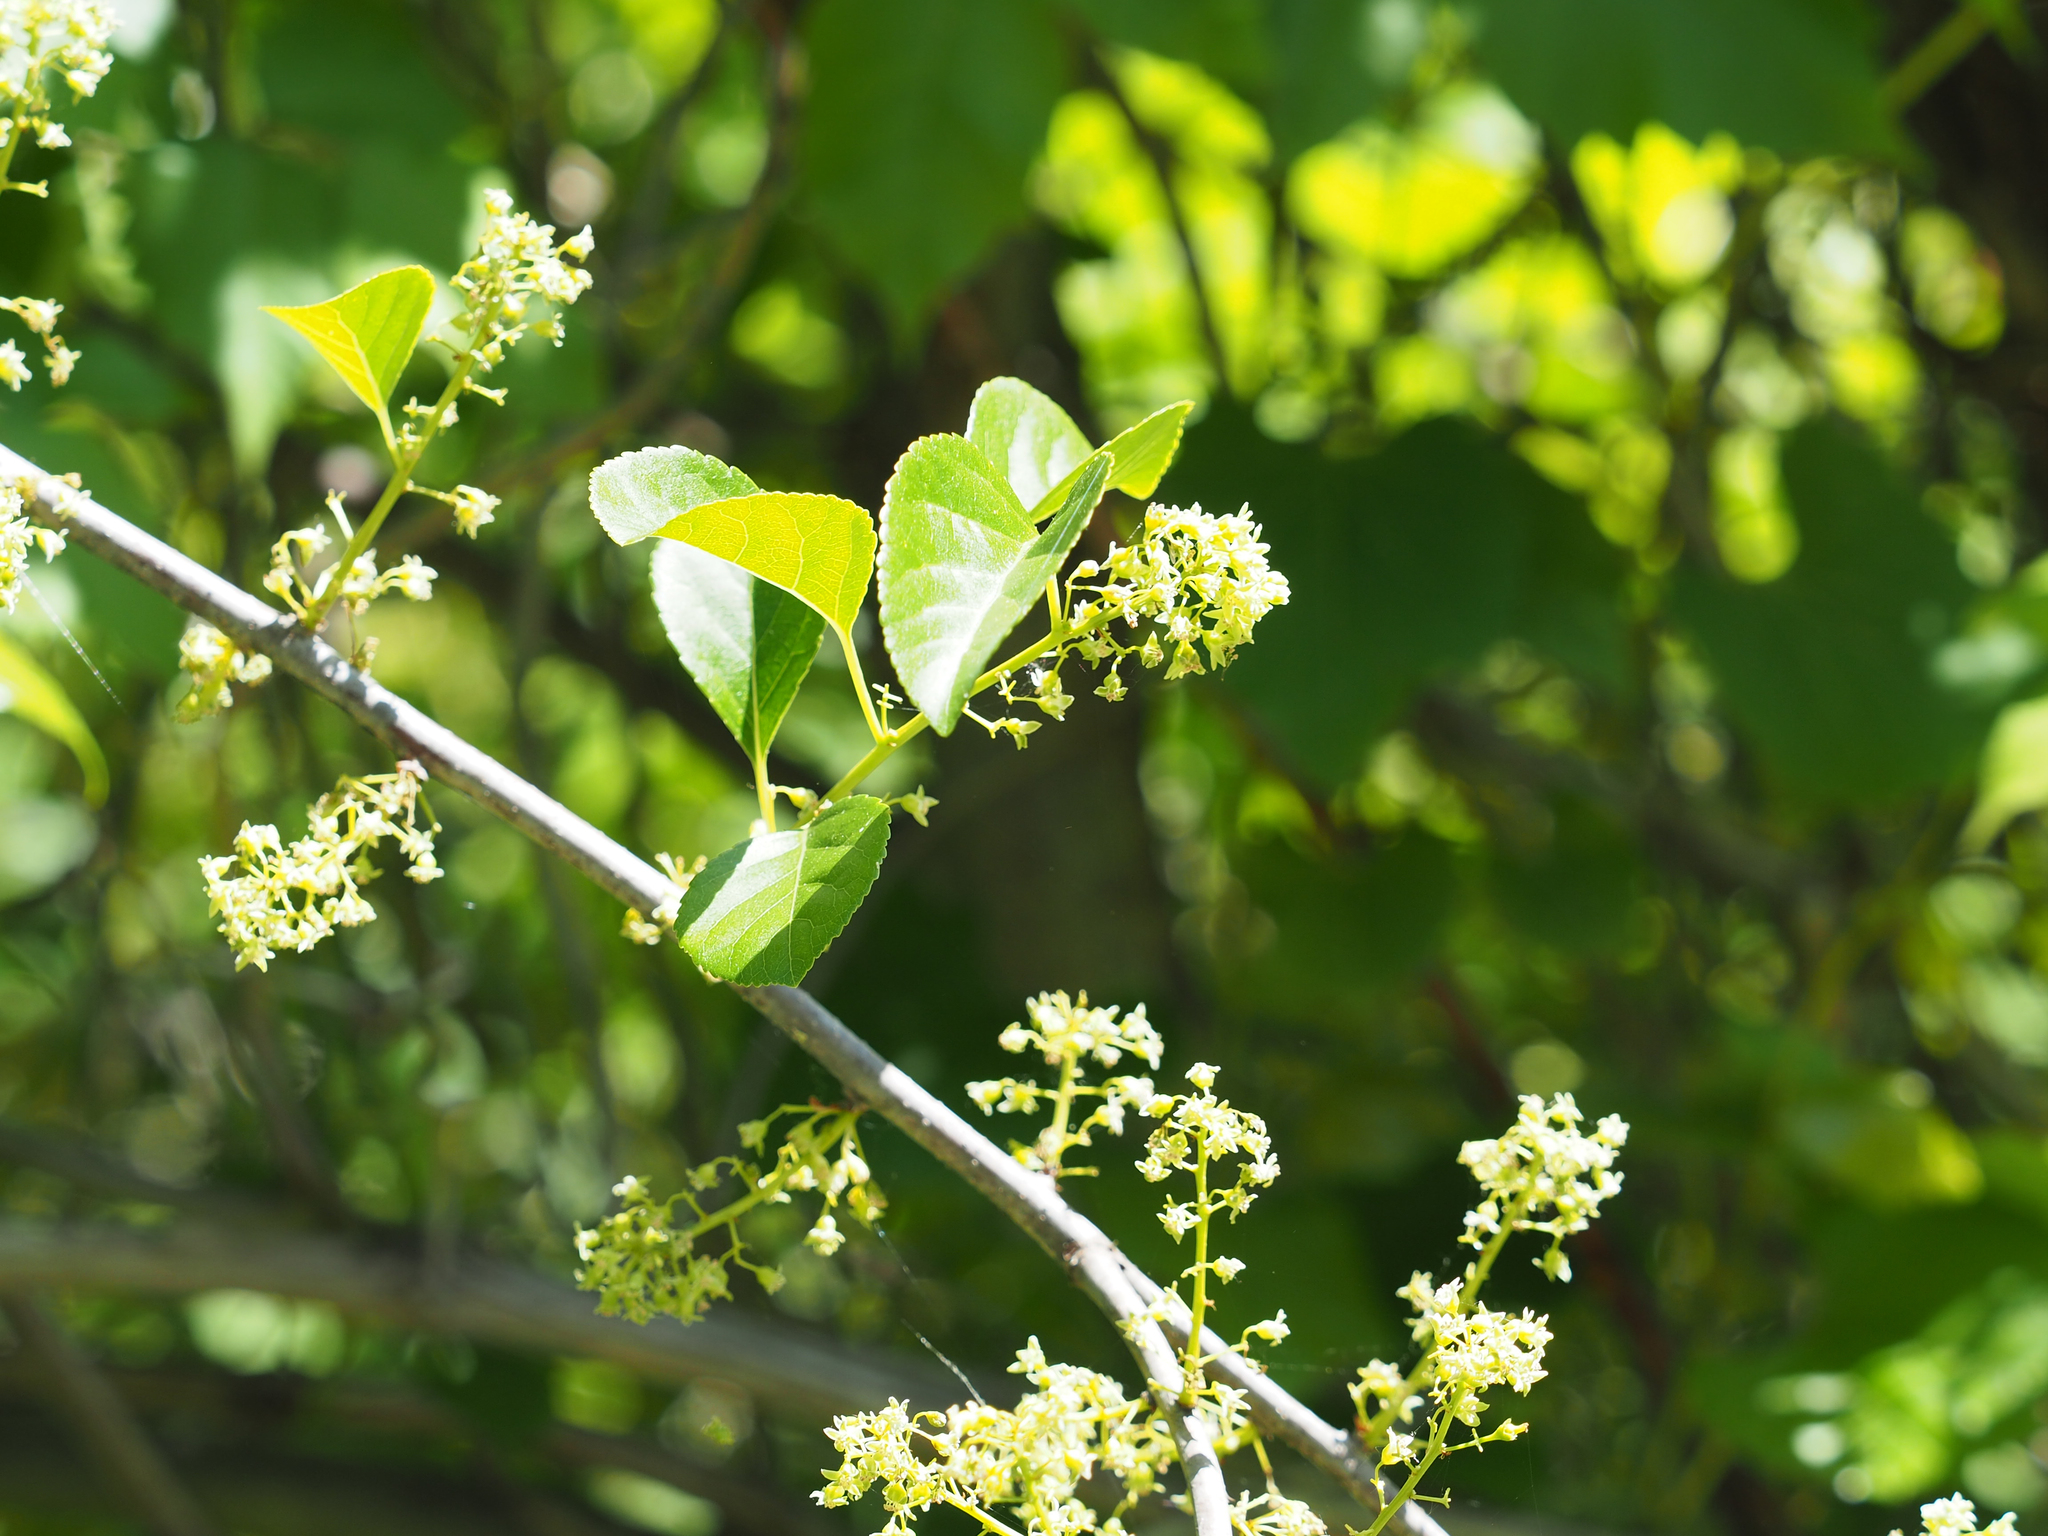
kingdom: Plantae
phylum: Tracheophyta
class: Magnoliopsida
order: Celastrales
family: Celastraceae
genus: Celastrus
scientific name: Celastrus orbiculatus
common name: Oriental bittersweet
